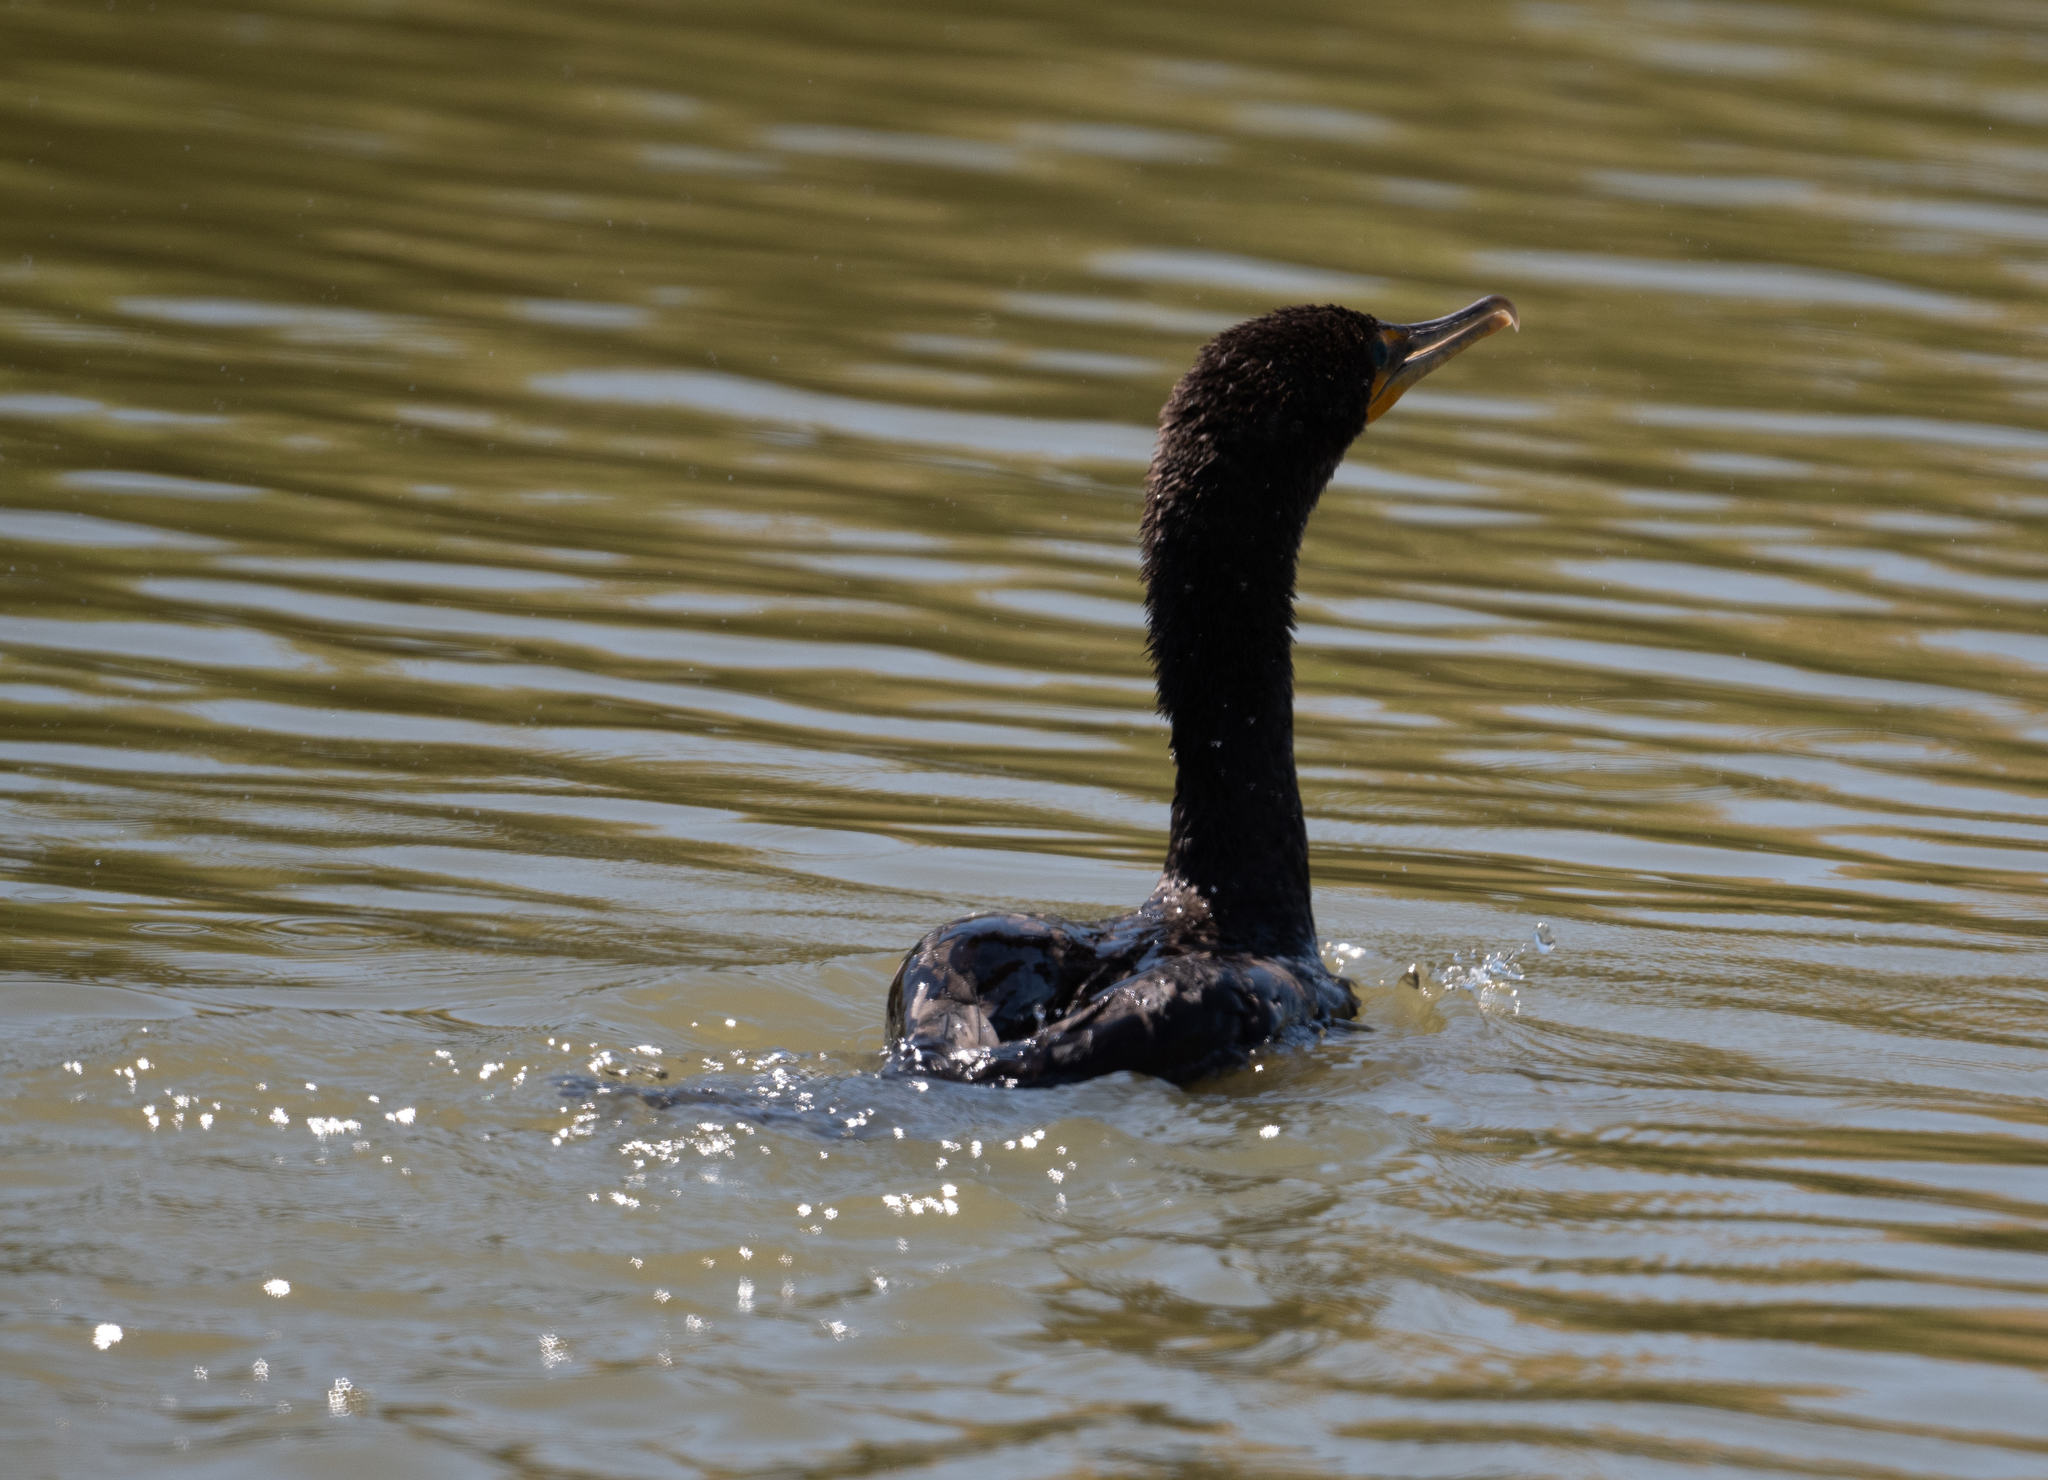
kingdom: Animalia
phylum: Chordata
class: Aves
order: Suliformes
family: Phalacrocoracidae
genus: Phalacrocorax
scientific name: Phalacrocorax auritus
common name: Double-crested cormorant
